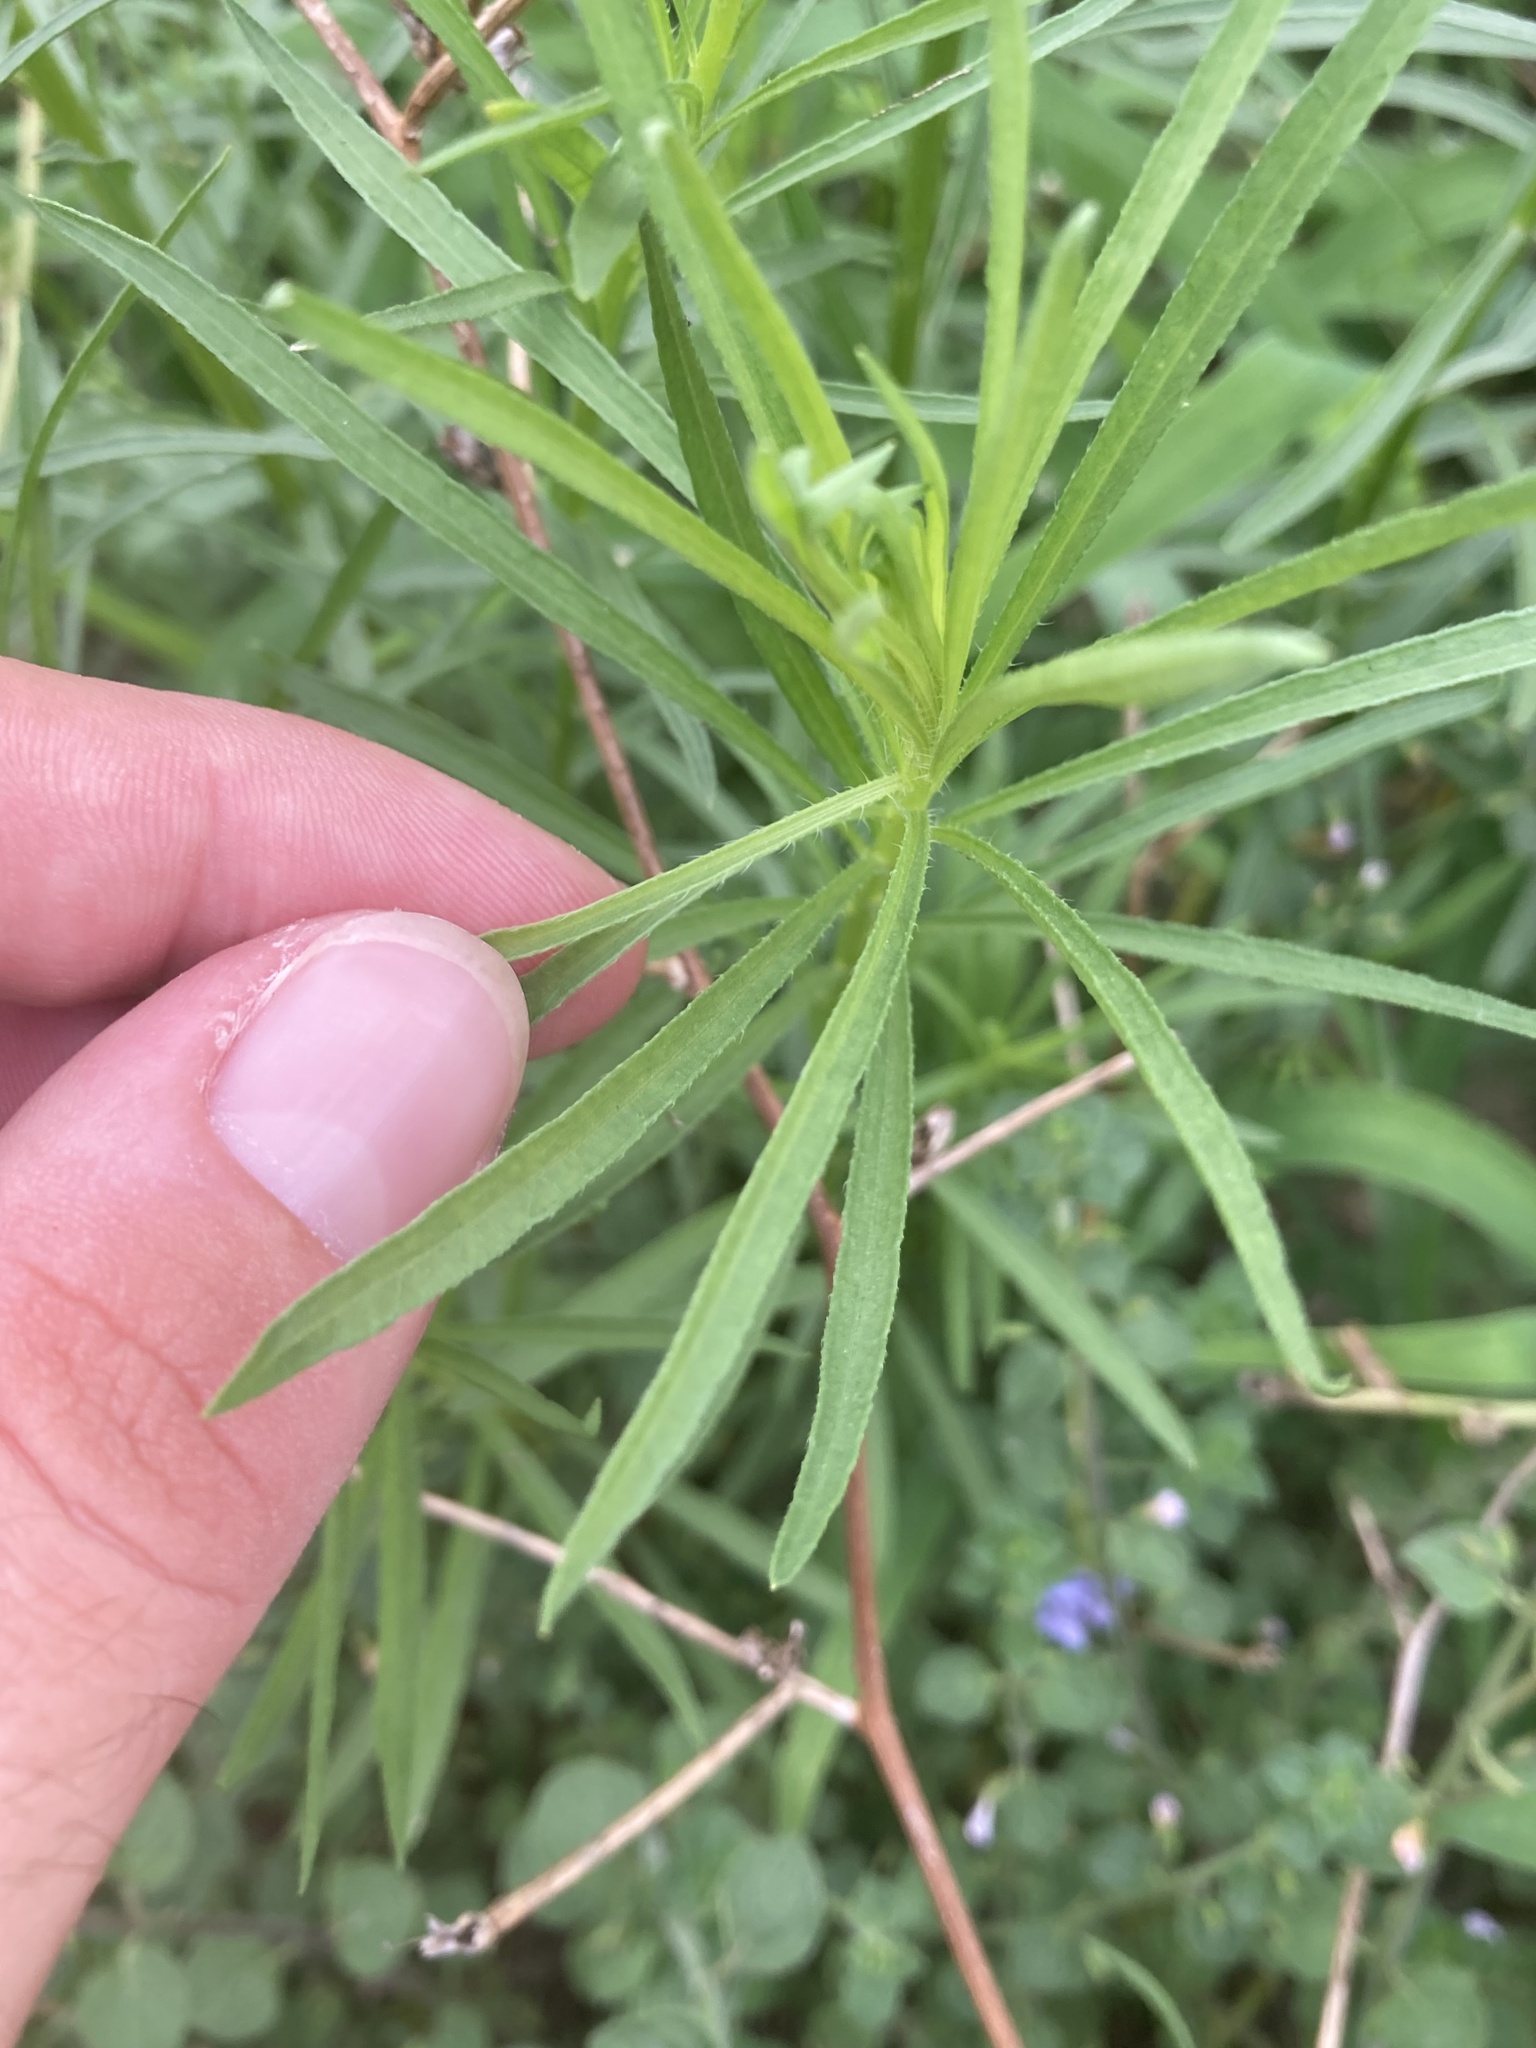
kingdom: Plantae
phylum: Tracheophyta
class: Magnoliopsida
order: Asterales
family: Asteraceae
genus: Erigeron
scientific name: Erigeron canadensis
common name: Canadian fleabane
